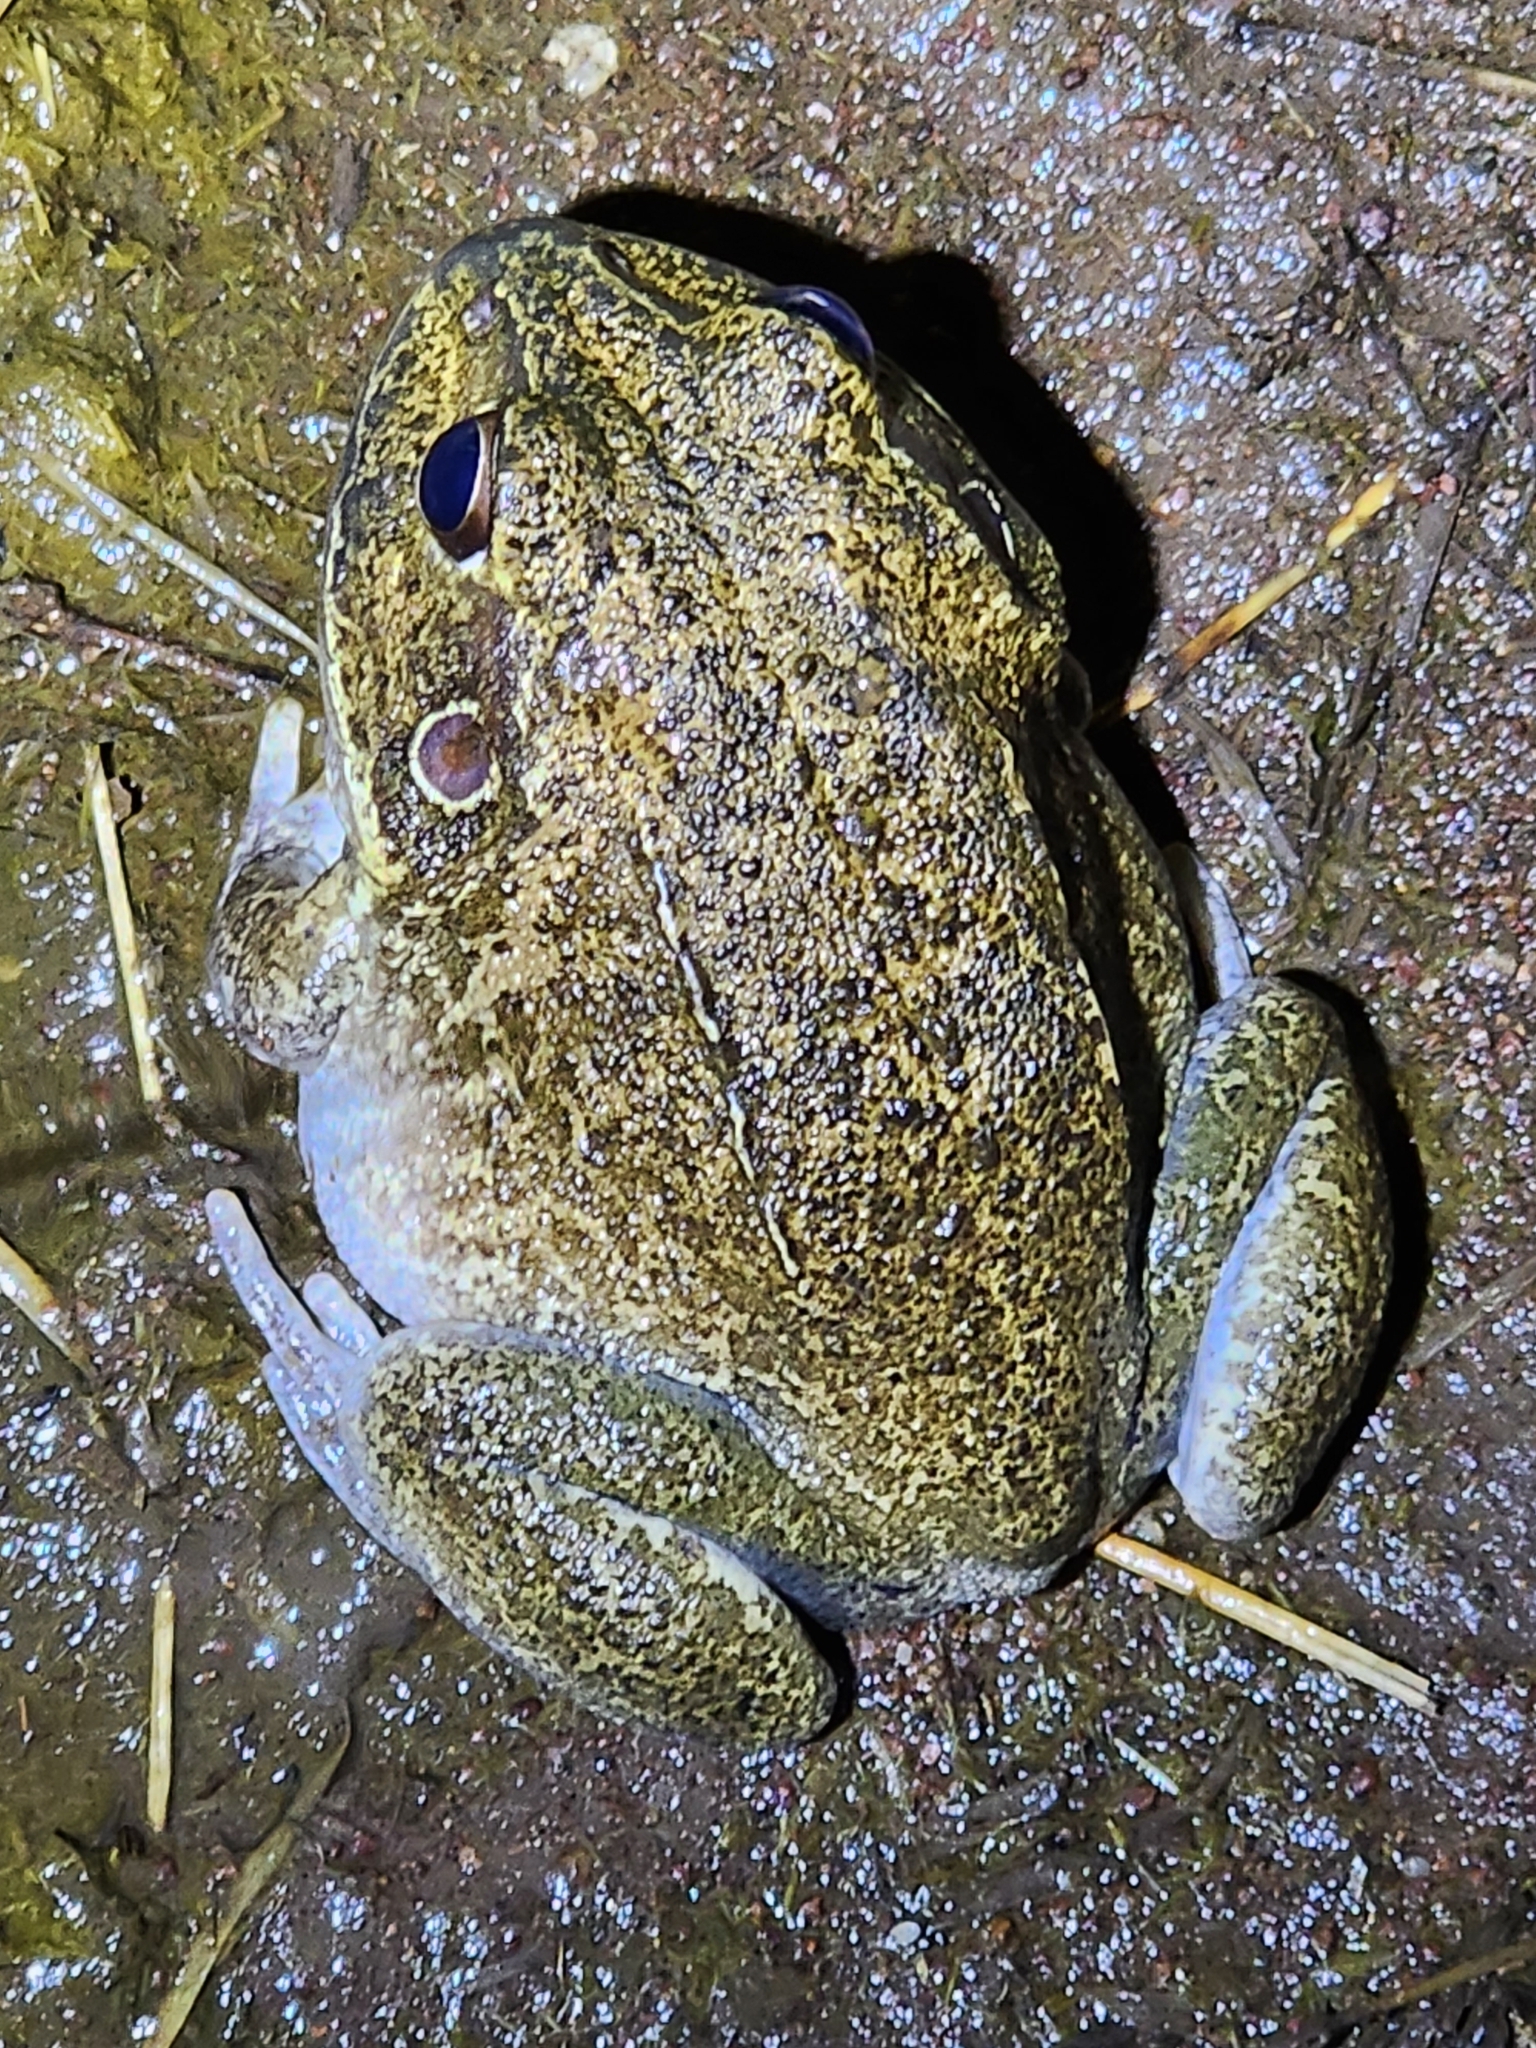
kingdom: Animalia
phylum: Chordata
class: Amphibia
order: Anura
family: Pelodryadidae
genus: Ranoidea
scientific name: Ranoidea novaehollandiae
